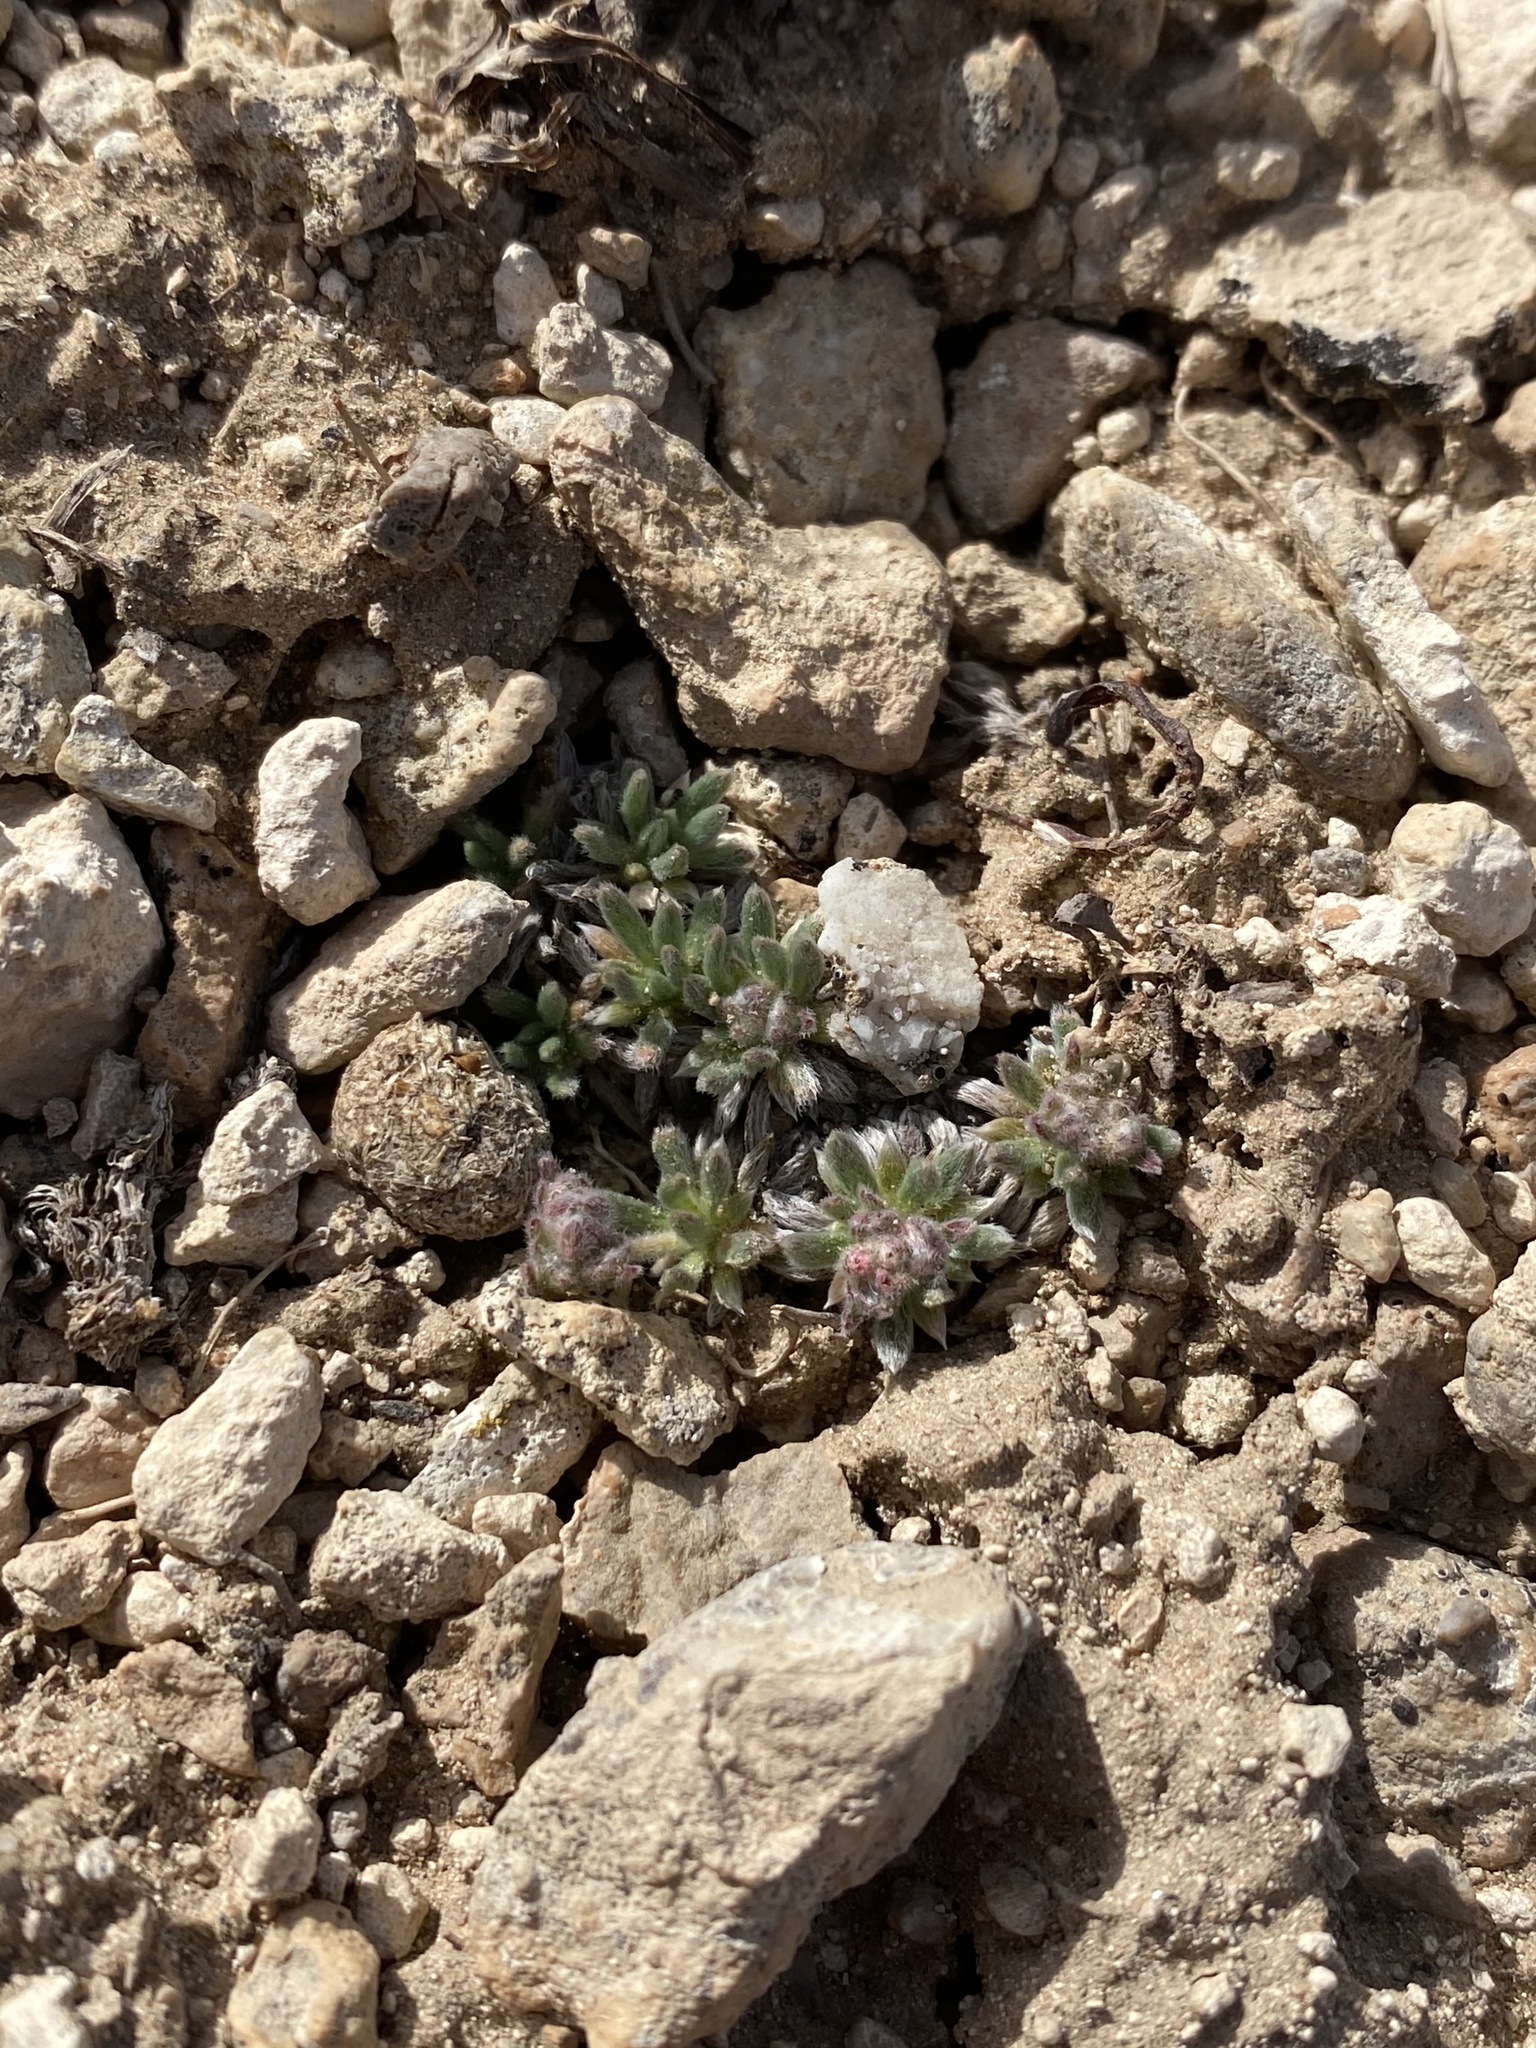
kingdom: Plantae
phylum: Tracheophyta
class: Magnoliopsida
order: Caryophyllales
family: Polygonaceae
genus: Eriogonum
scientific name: Eriogonum villiflorum
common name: Gray's wild buckwheat
